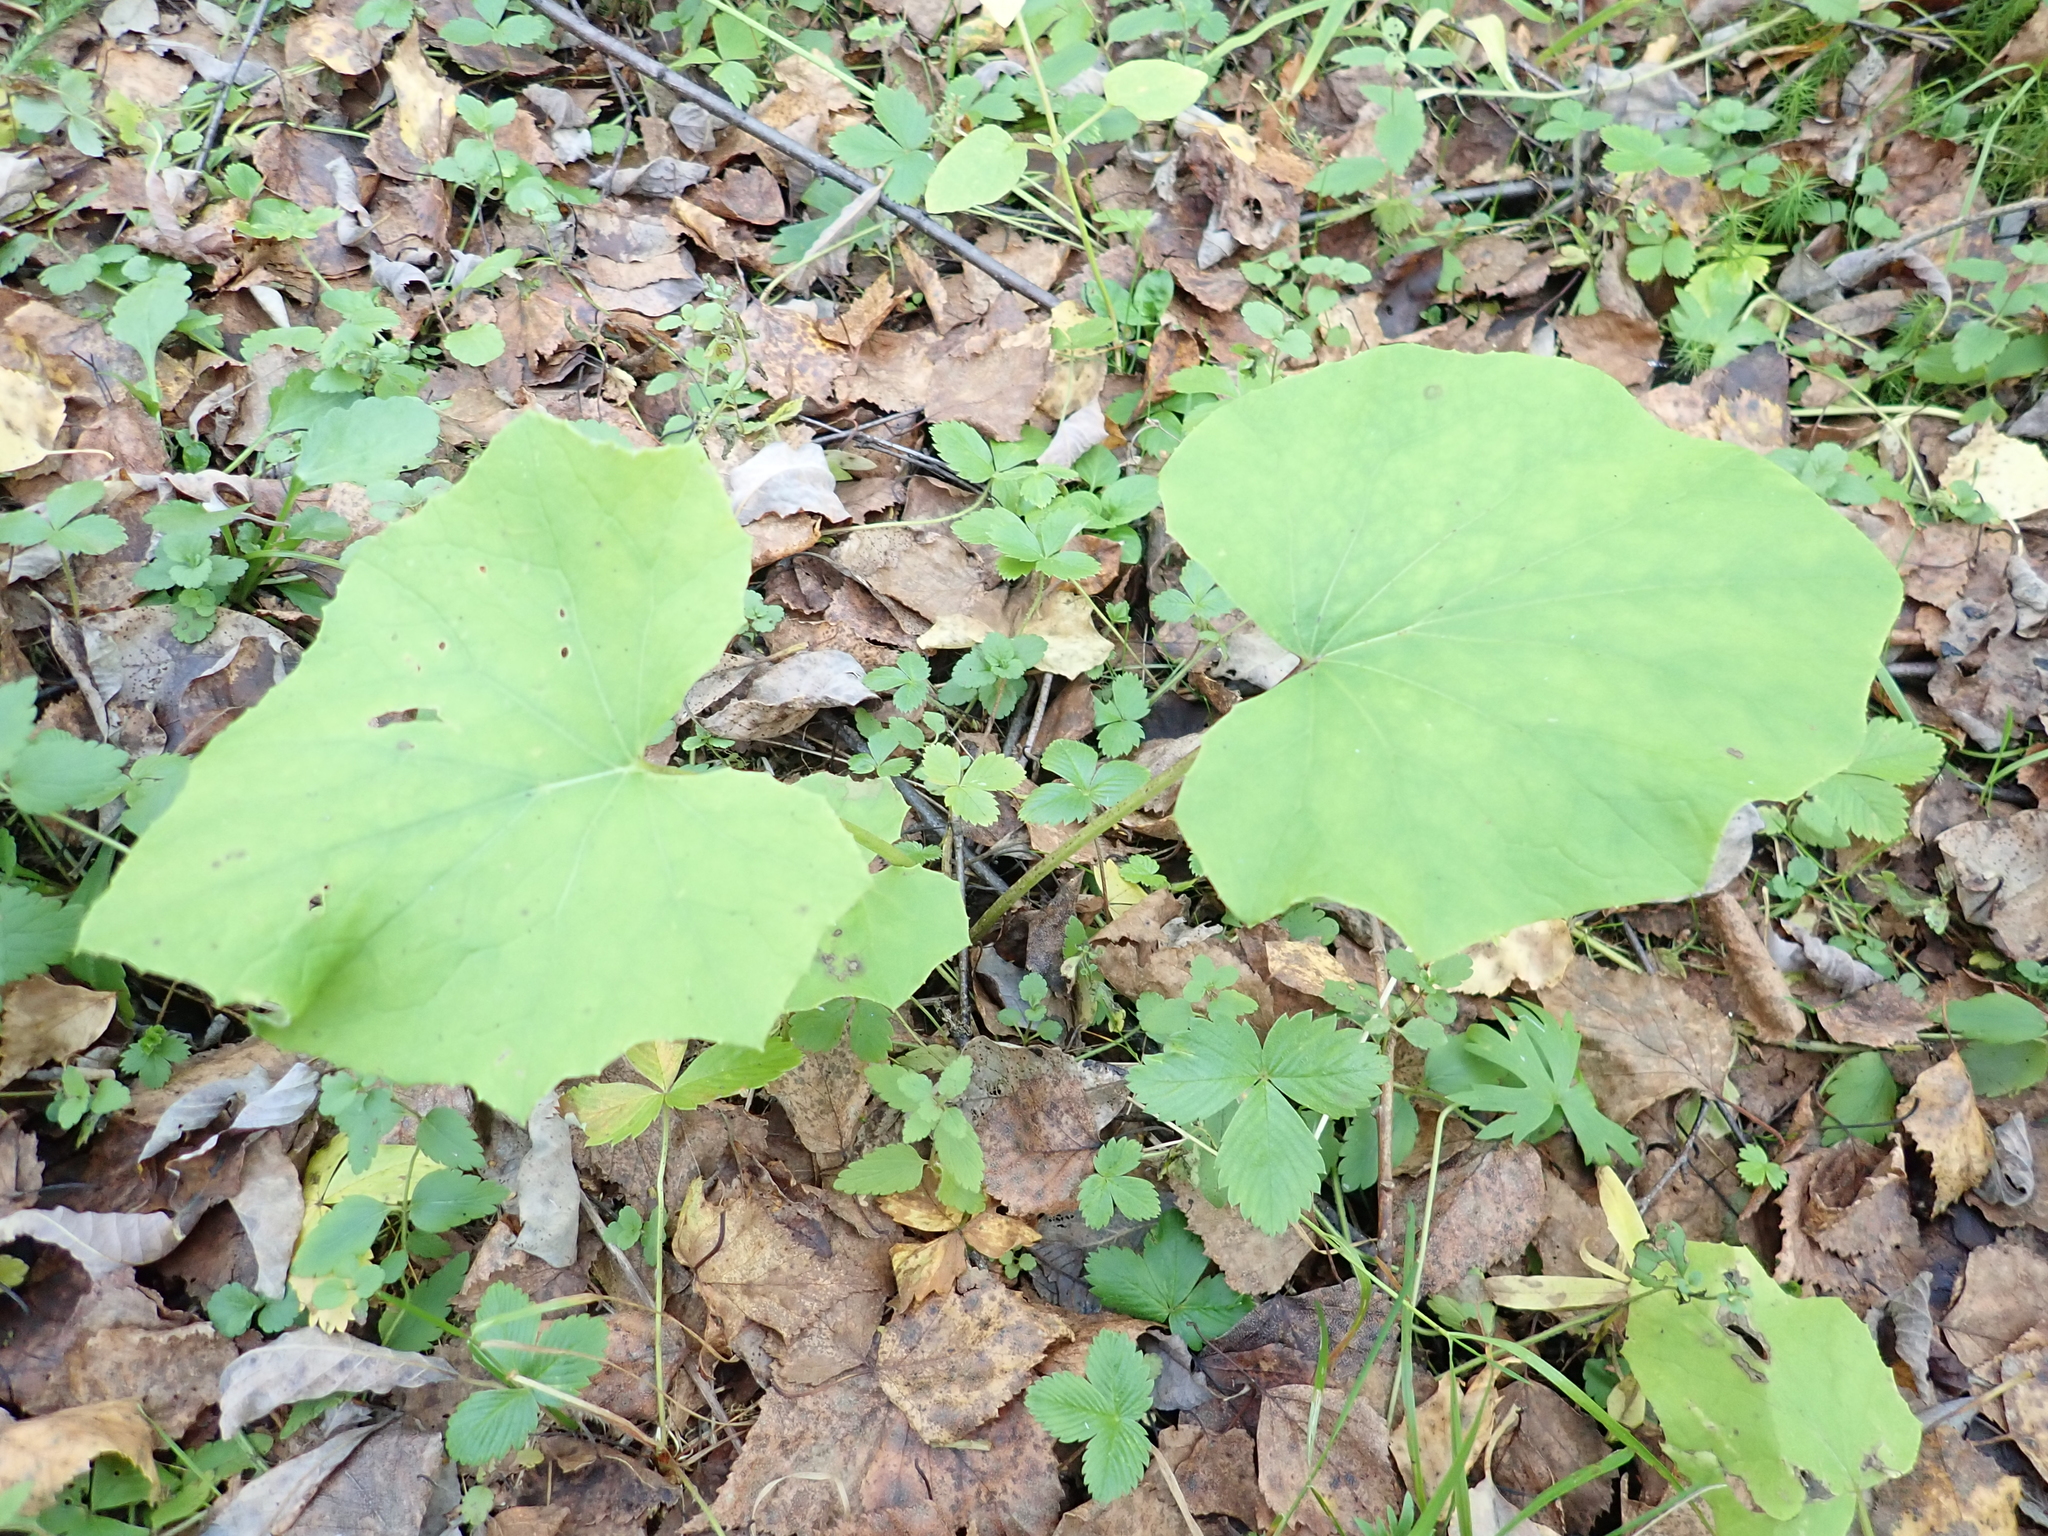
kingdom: Plantae
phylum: Tracheophyta
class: Magnoliopsida
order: Asterales
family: Asteraceae
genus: Tussilago
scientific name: Tussilago farfara
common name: Coltsfoot
